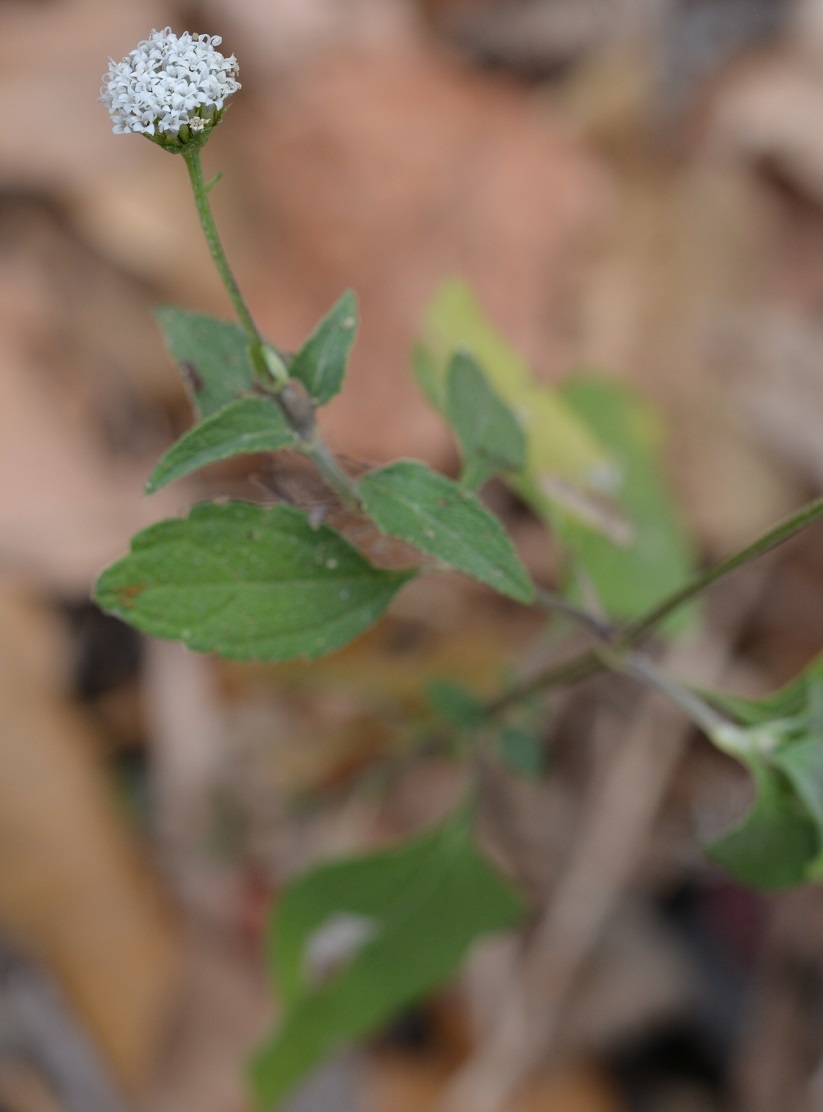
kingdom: Plantae
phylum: Tracheophyta
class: Magnoliopsida
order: Asterales
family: Asteraceae
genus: Melanthera
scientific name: Melanthera nivea
